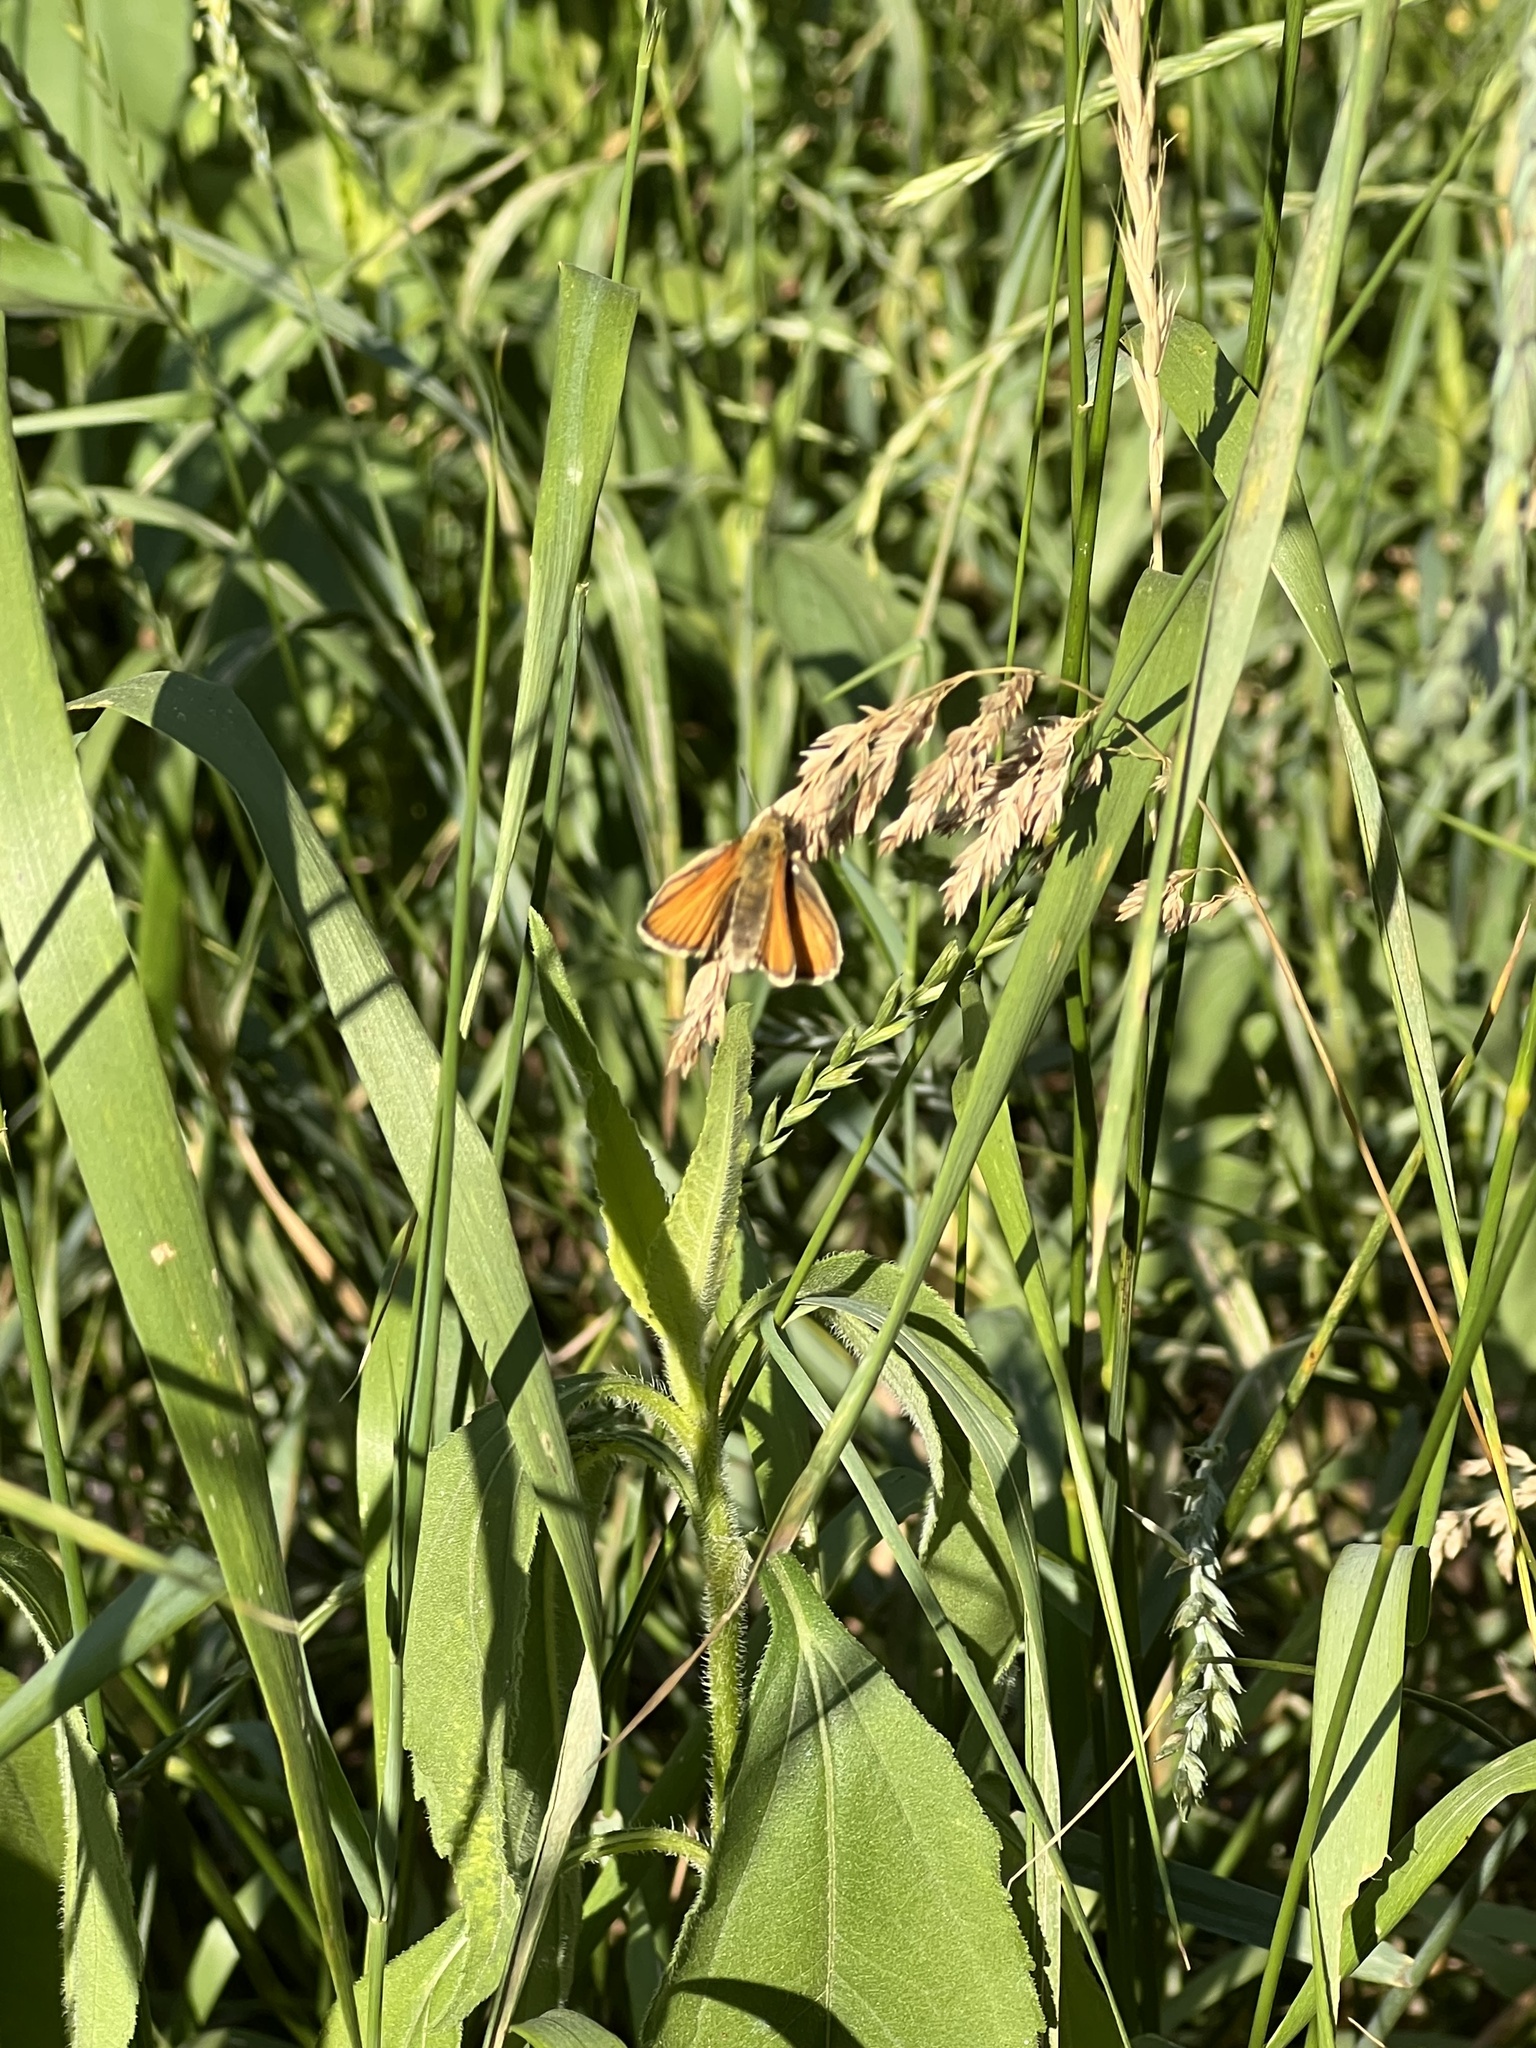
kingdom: Animalia
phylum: Arthropoda
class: Insecta
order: Lepidoptera
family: Hesperiidae
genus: Thymelicus
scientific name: Thymelicus lineola
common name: Essex skipper
